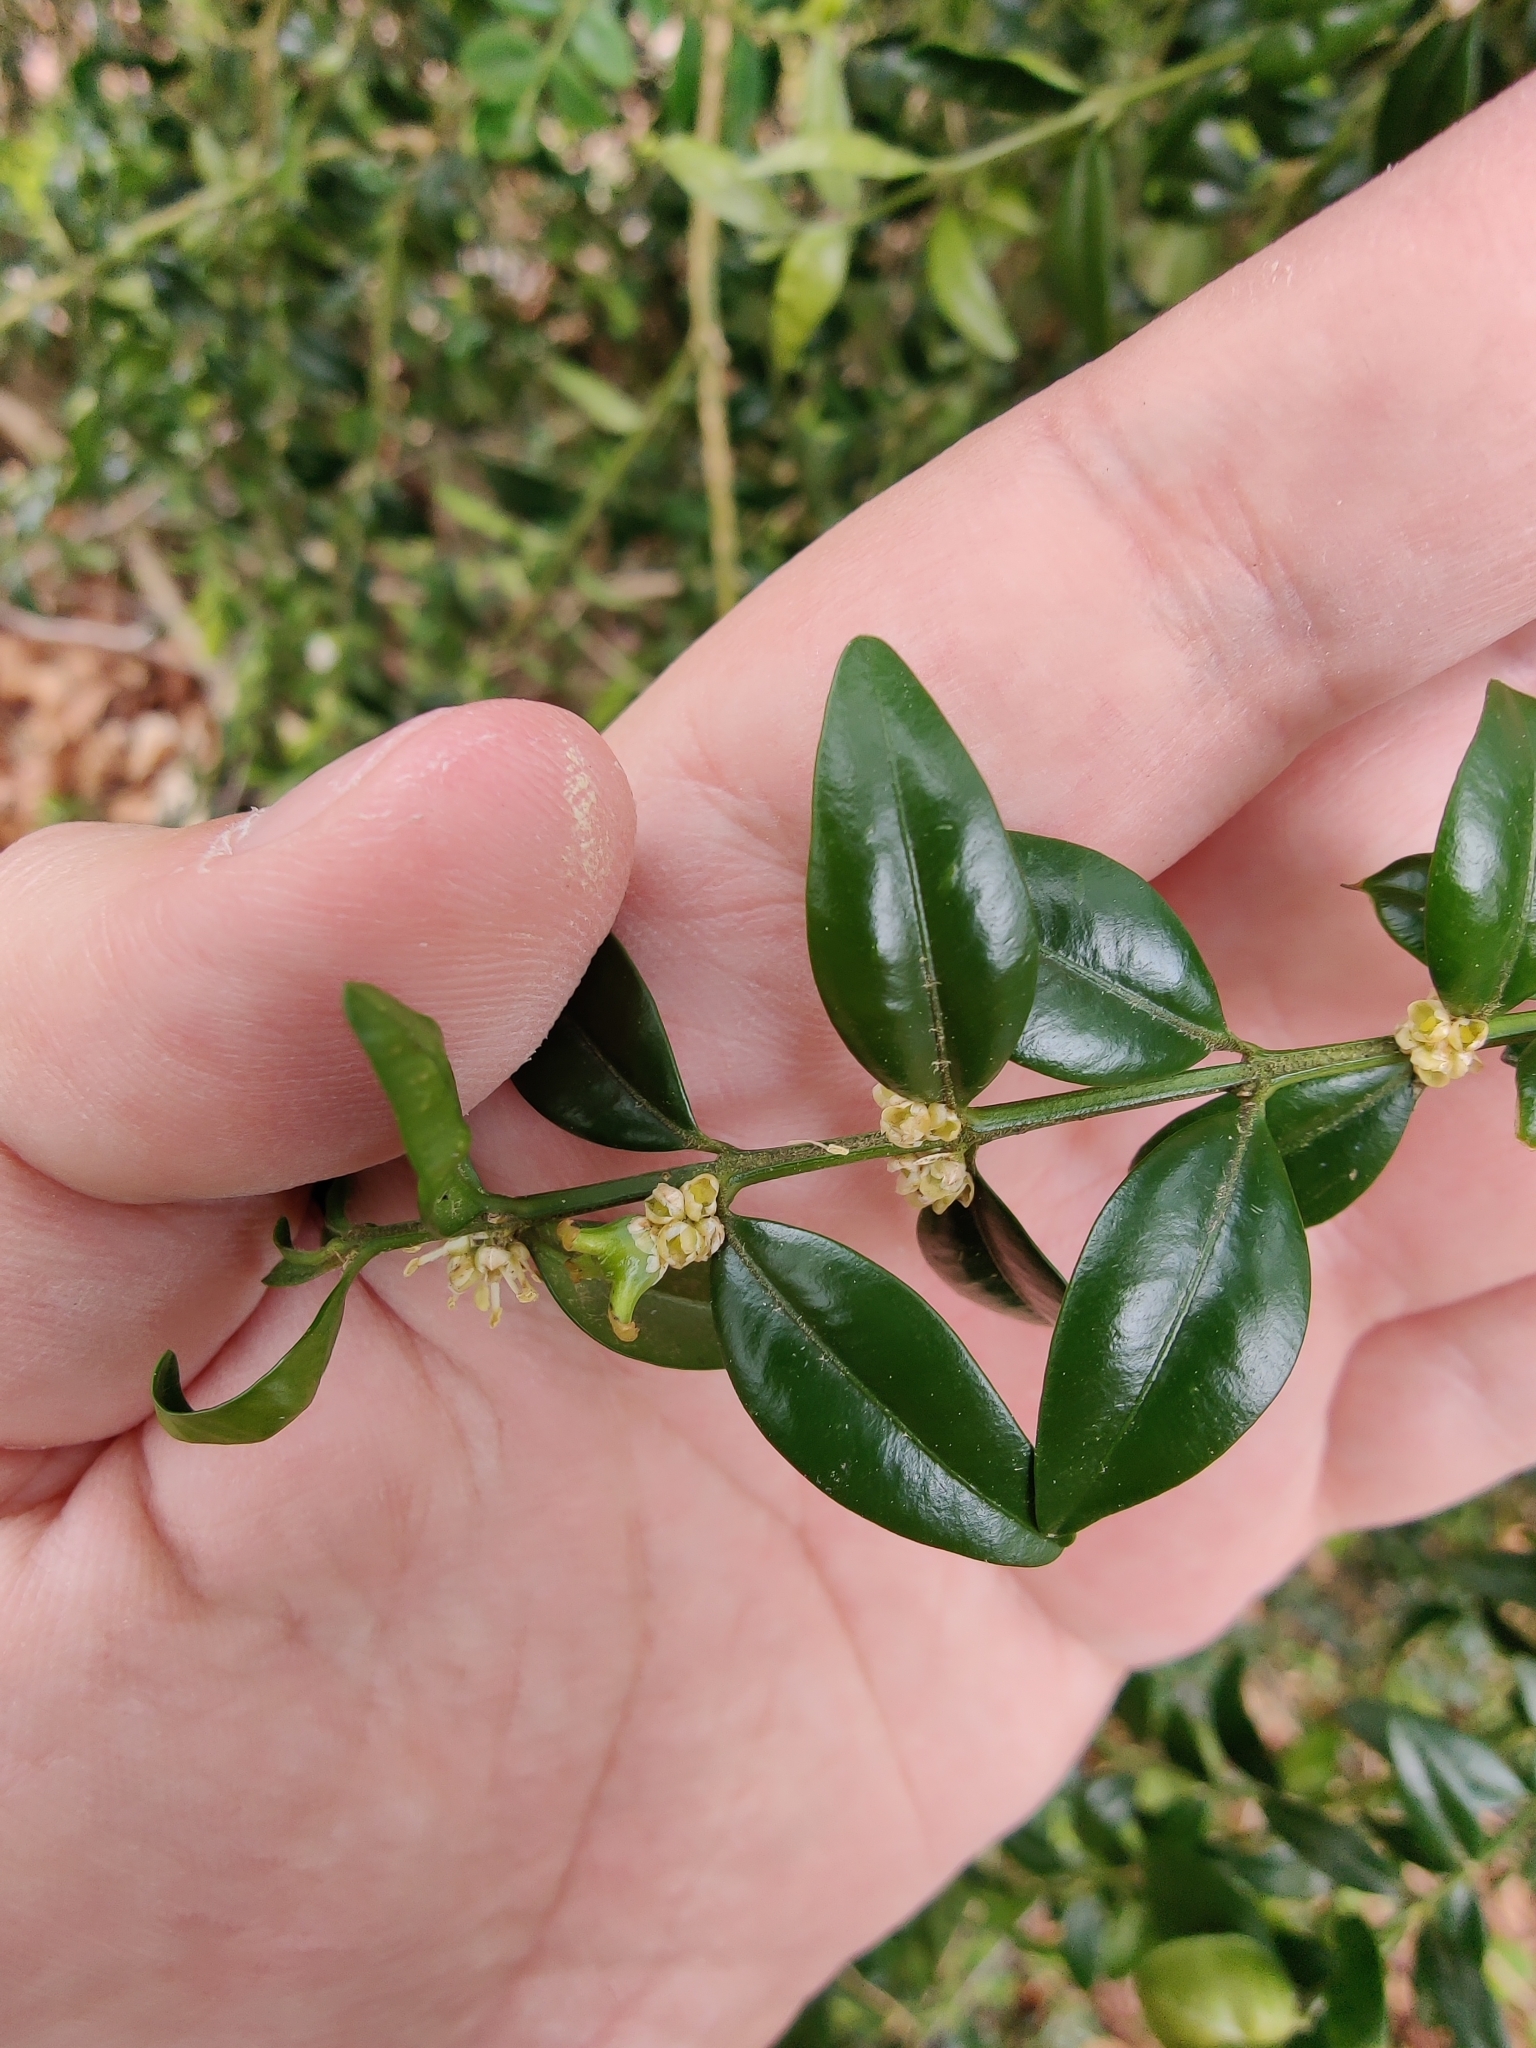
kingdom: Plantae
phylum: Tracheophyta
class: Magnoliopsida
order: Buxales
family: Buxaceae
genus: Buxus
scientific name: Buxus sempervirens
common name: Box
